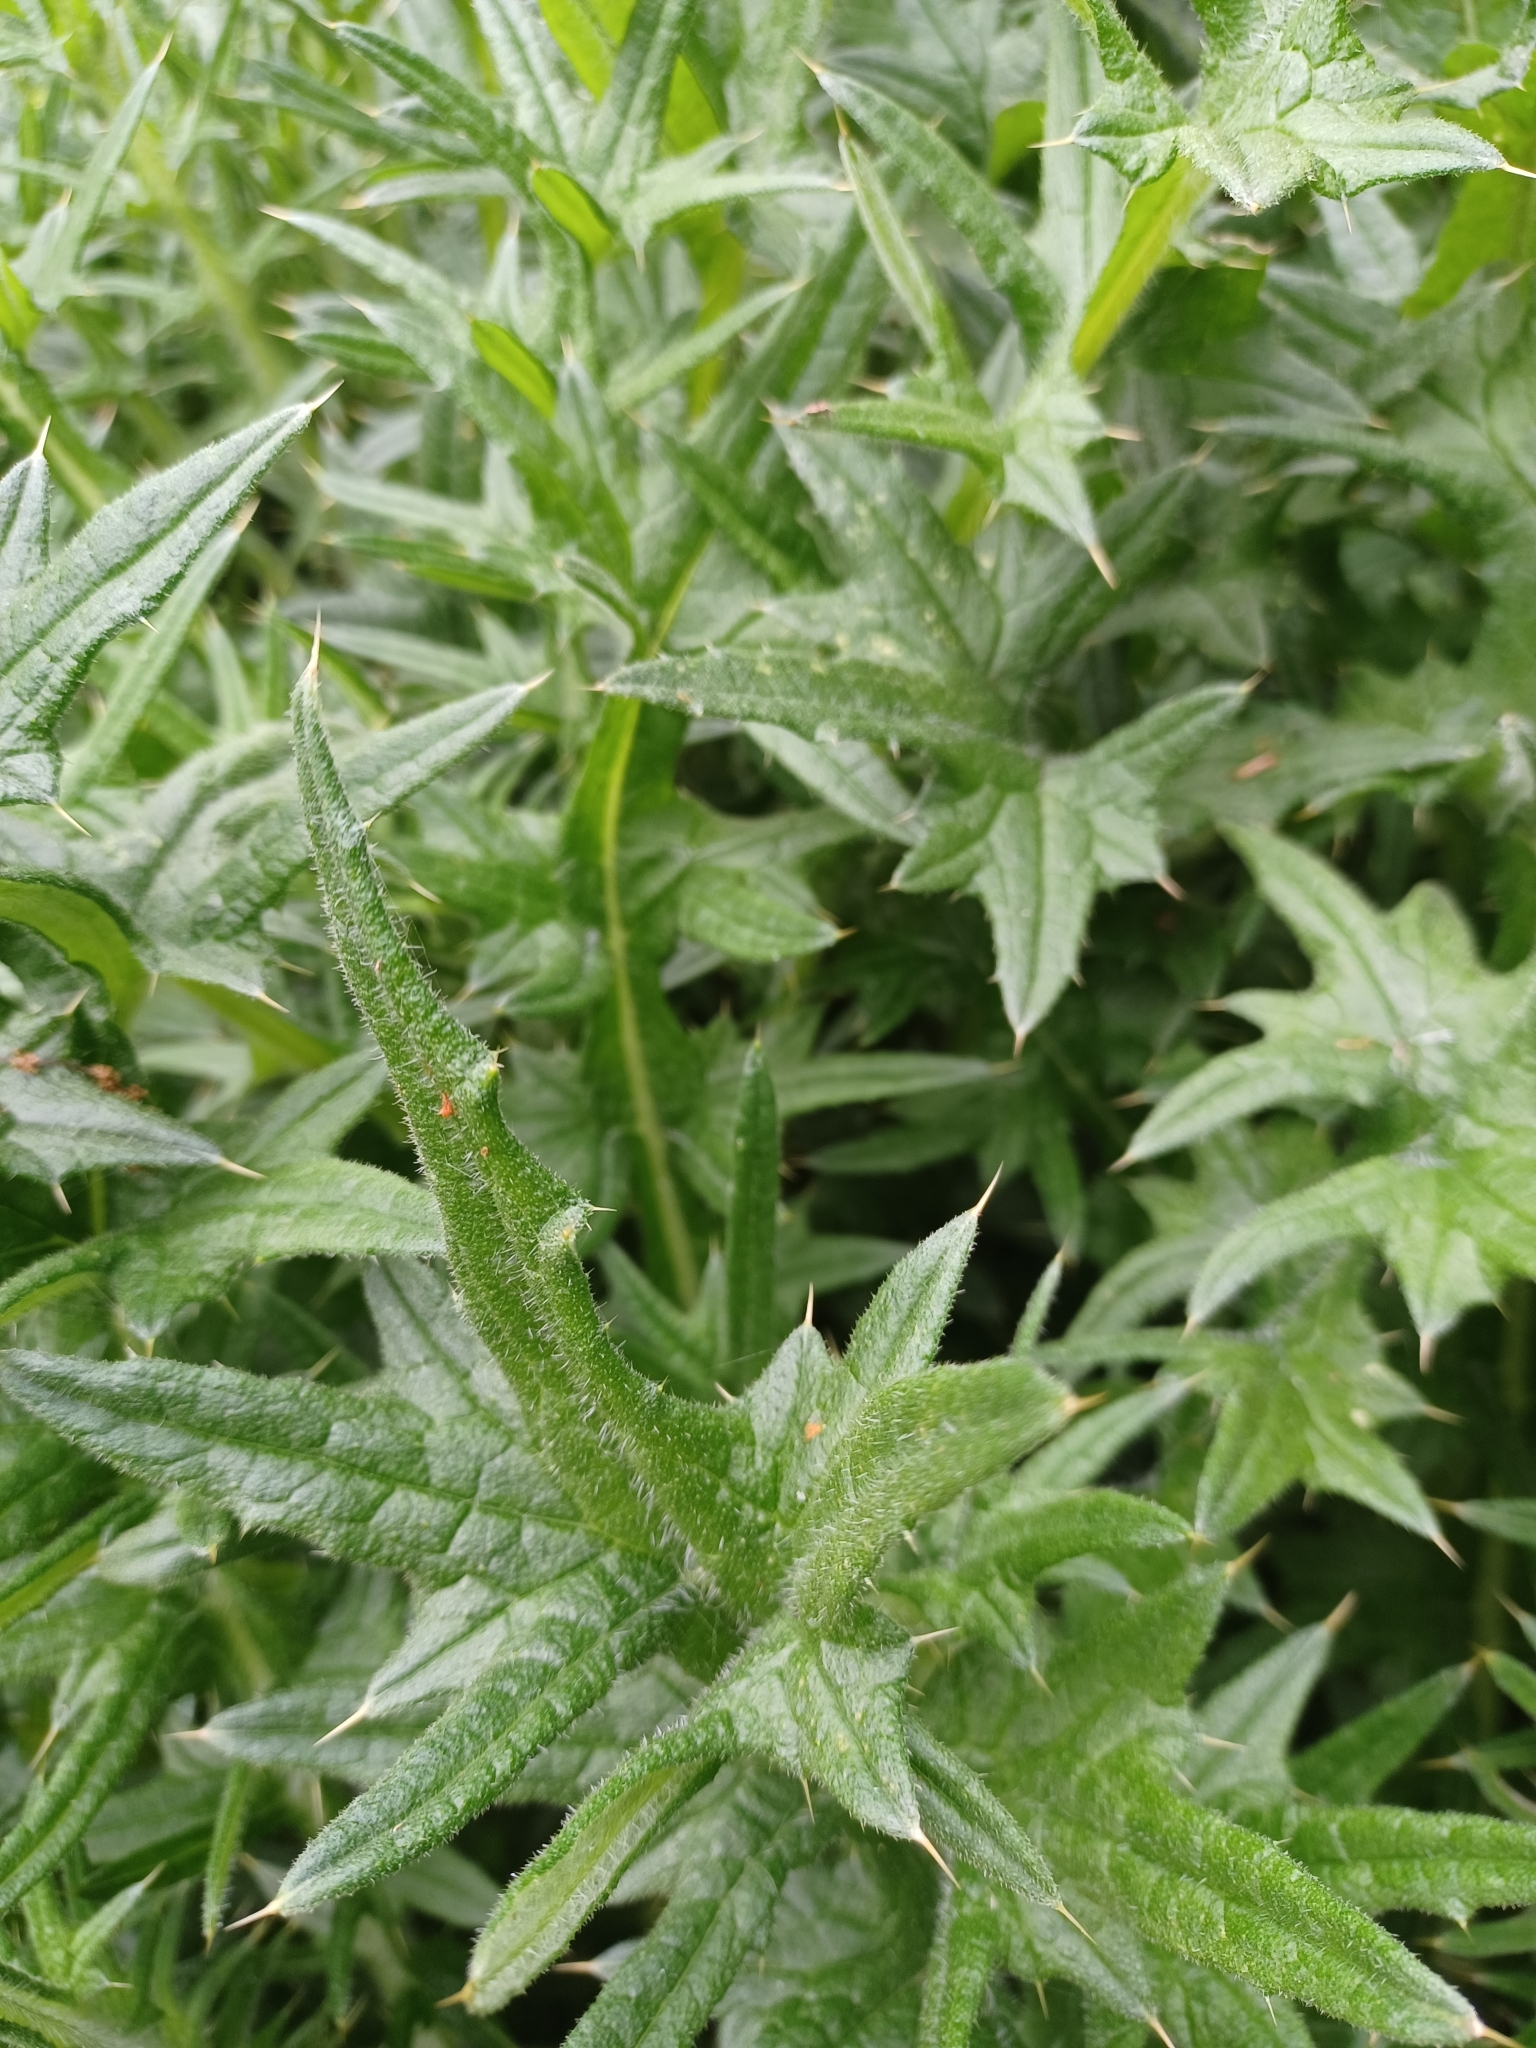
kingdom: Plantae
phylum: Tracheophyta
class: Magnoliopsida
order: Asterales
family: Asteraceae
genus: Cirsium
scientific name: Cirsium vulgare
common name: Bull thistle
